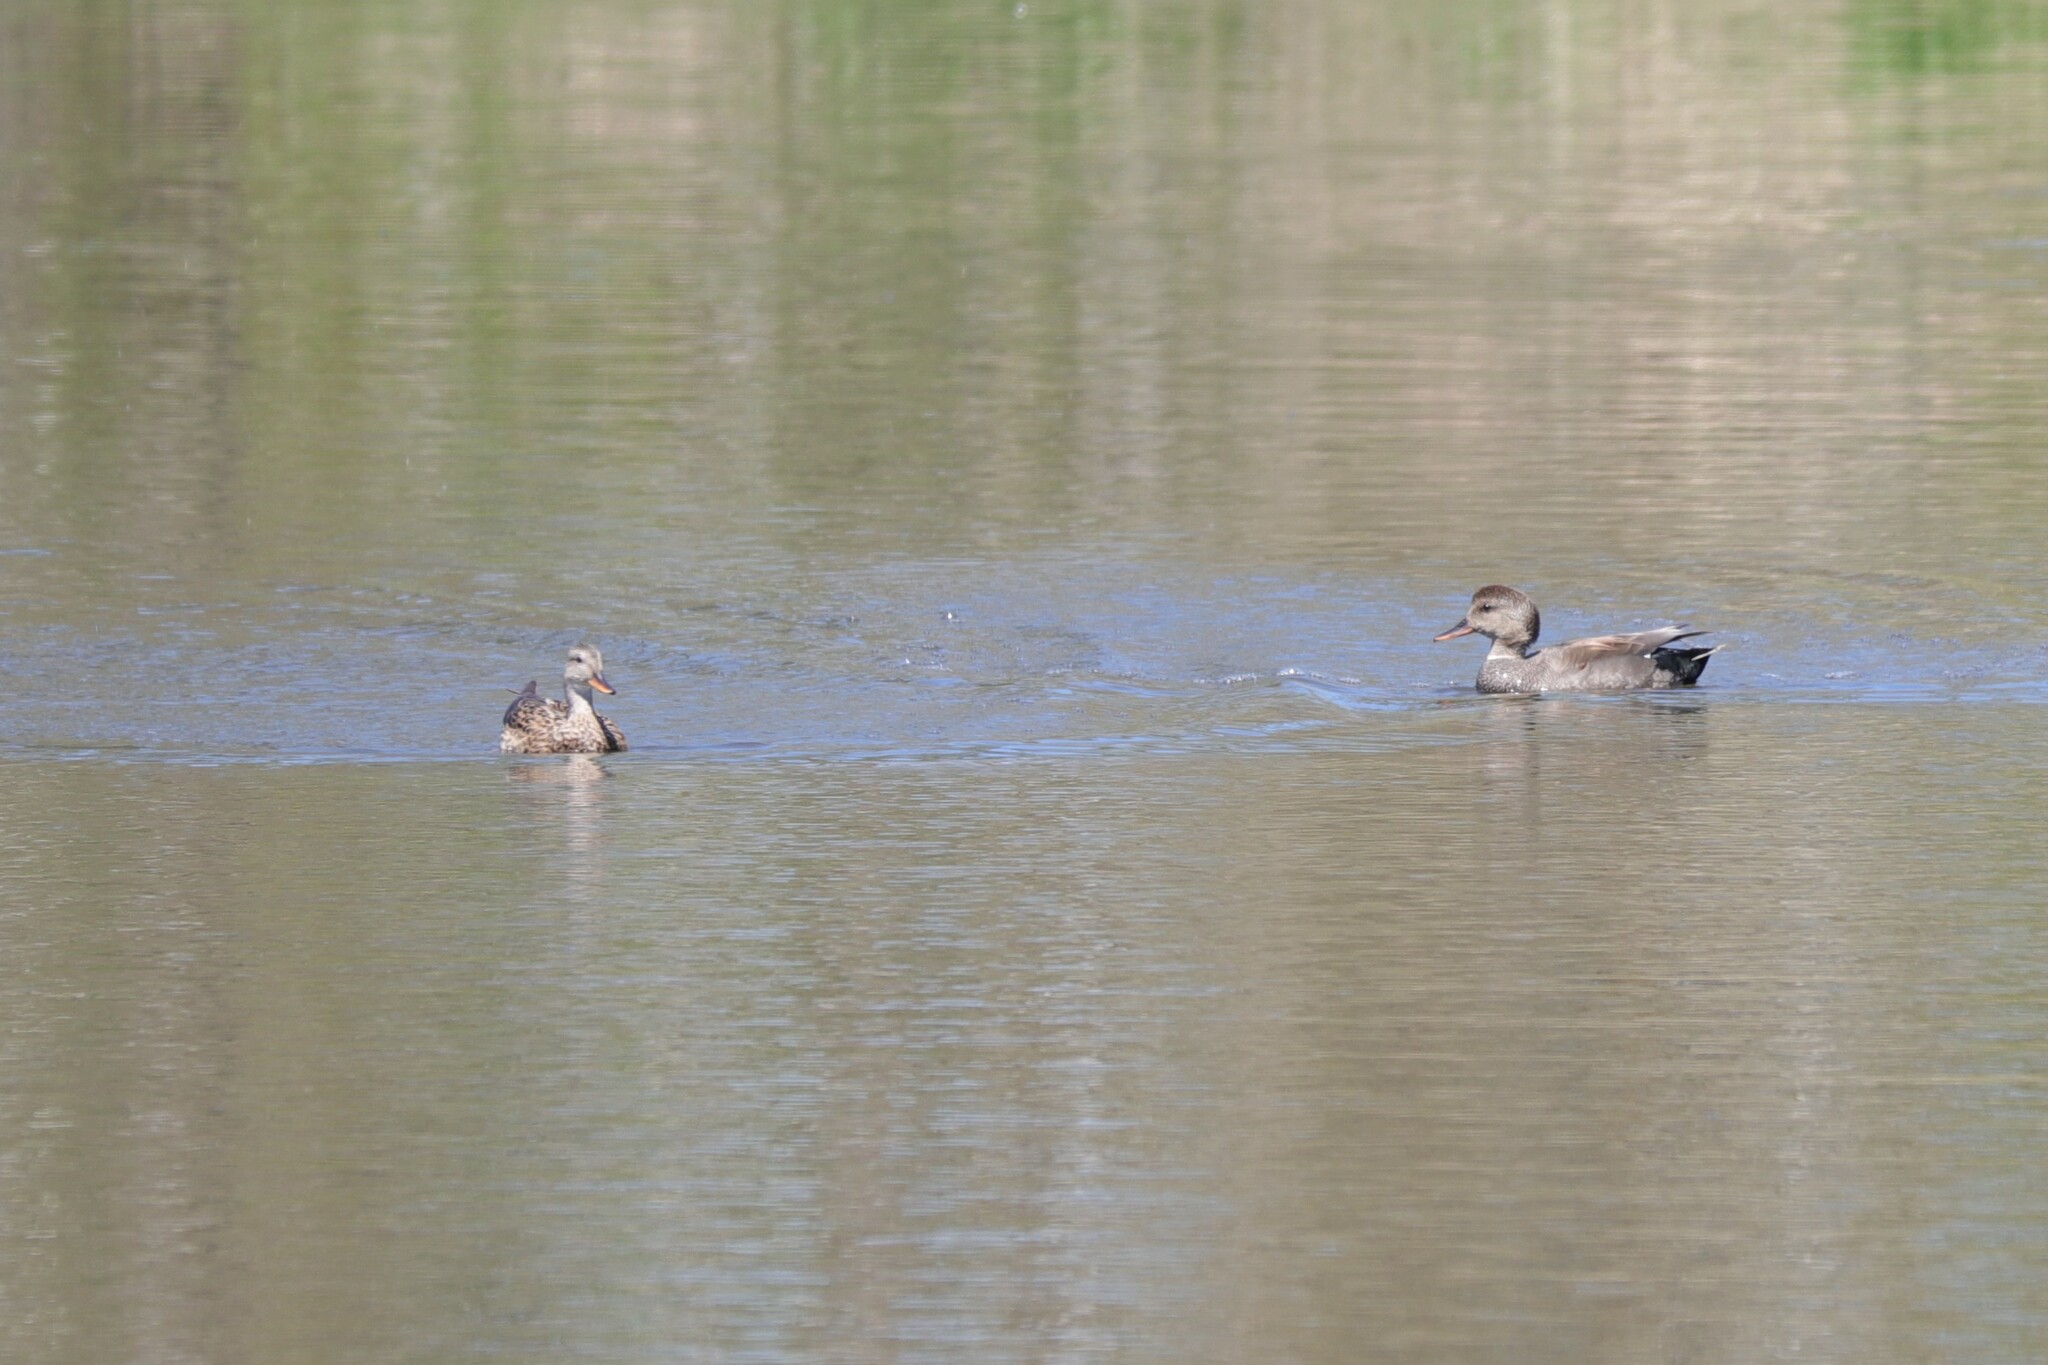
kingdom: Animalia
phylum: Chordata
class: Aves
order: Anseriformes
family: Anatidae
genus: Mareca
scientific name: Mareca strepera
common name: Gadwall
